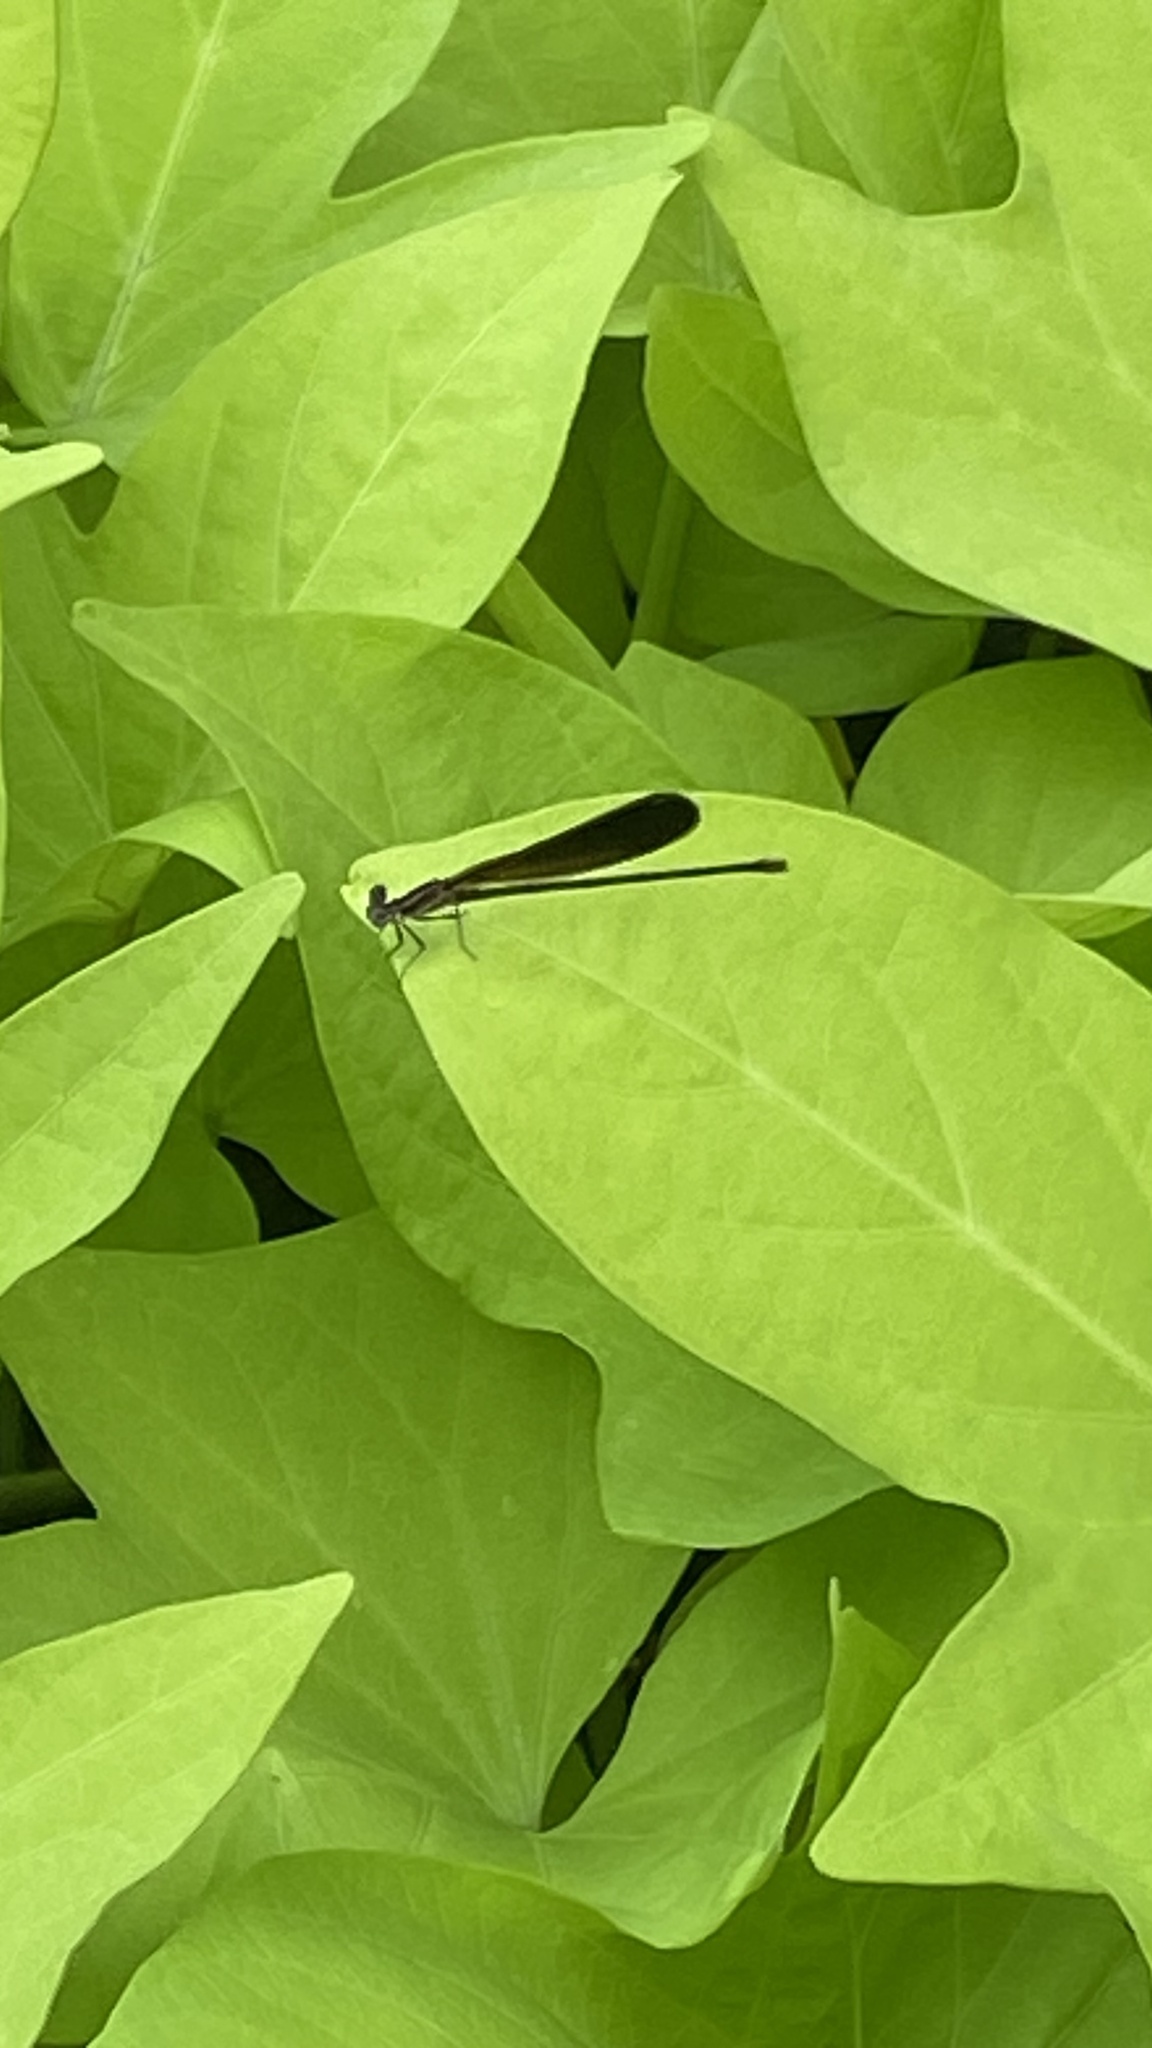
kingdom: Animalia
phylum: Arthropoda
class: Insecta
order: Odonata
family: Calopterygidae
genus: Calopteryx
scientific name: Calopteryx maculata
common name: Ebony jewelwing
